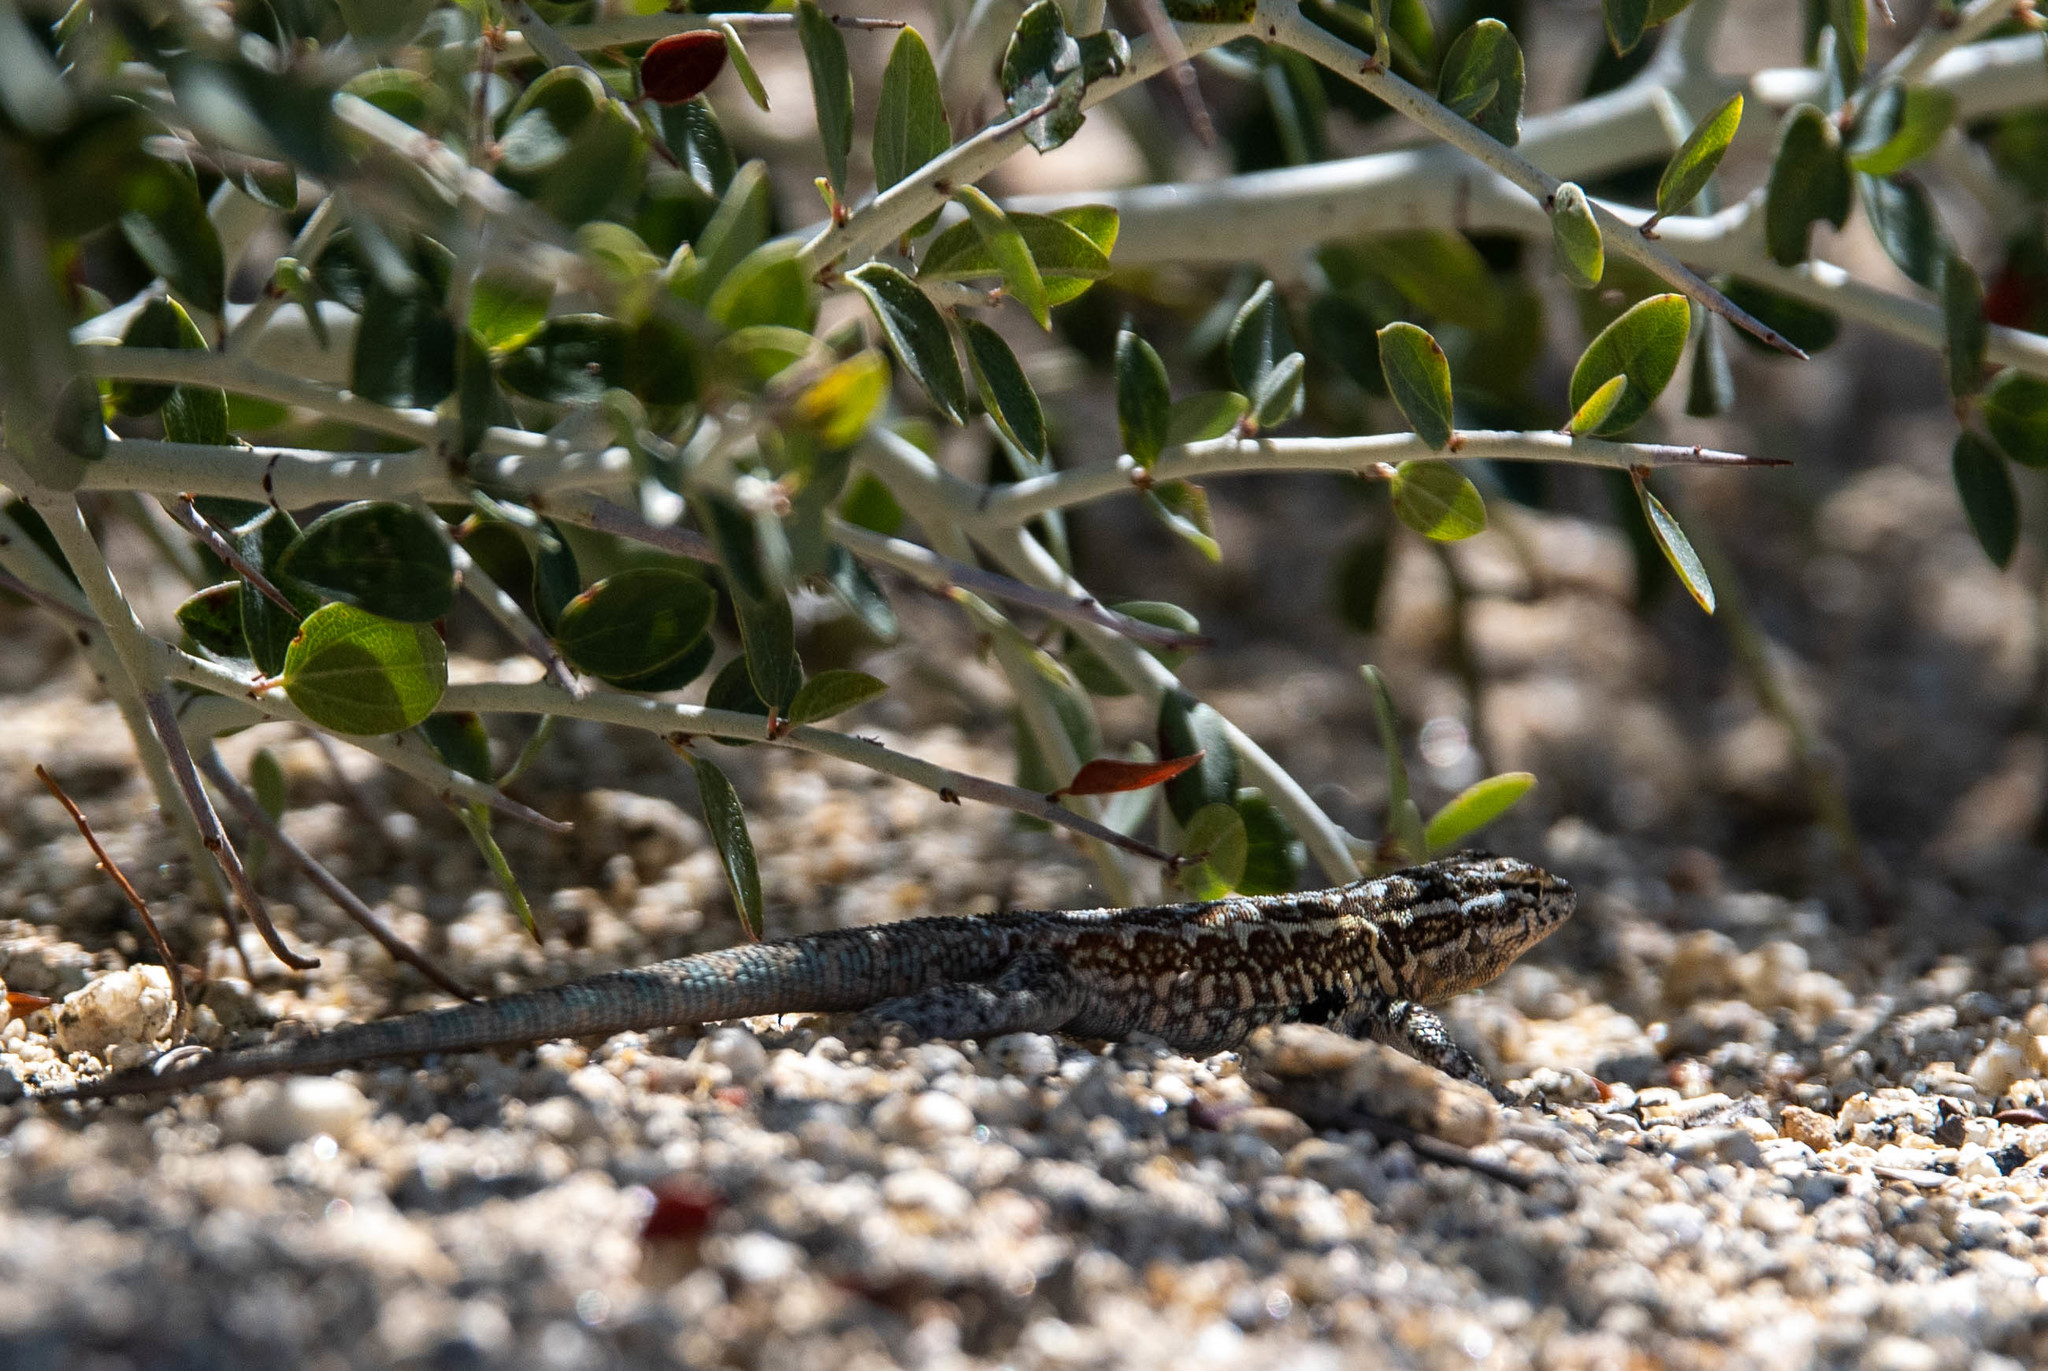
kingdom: Animalia
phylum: Chordata
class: Squamata
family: Phrynosomatidae
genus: Uta
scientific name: Uta stansburiana
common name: Side-blotched lizard
